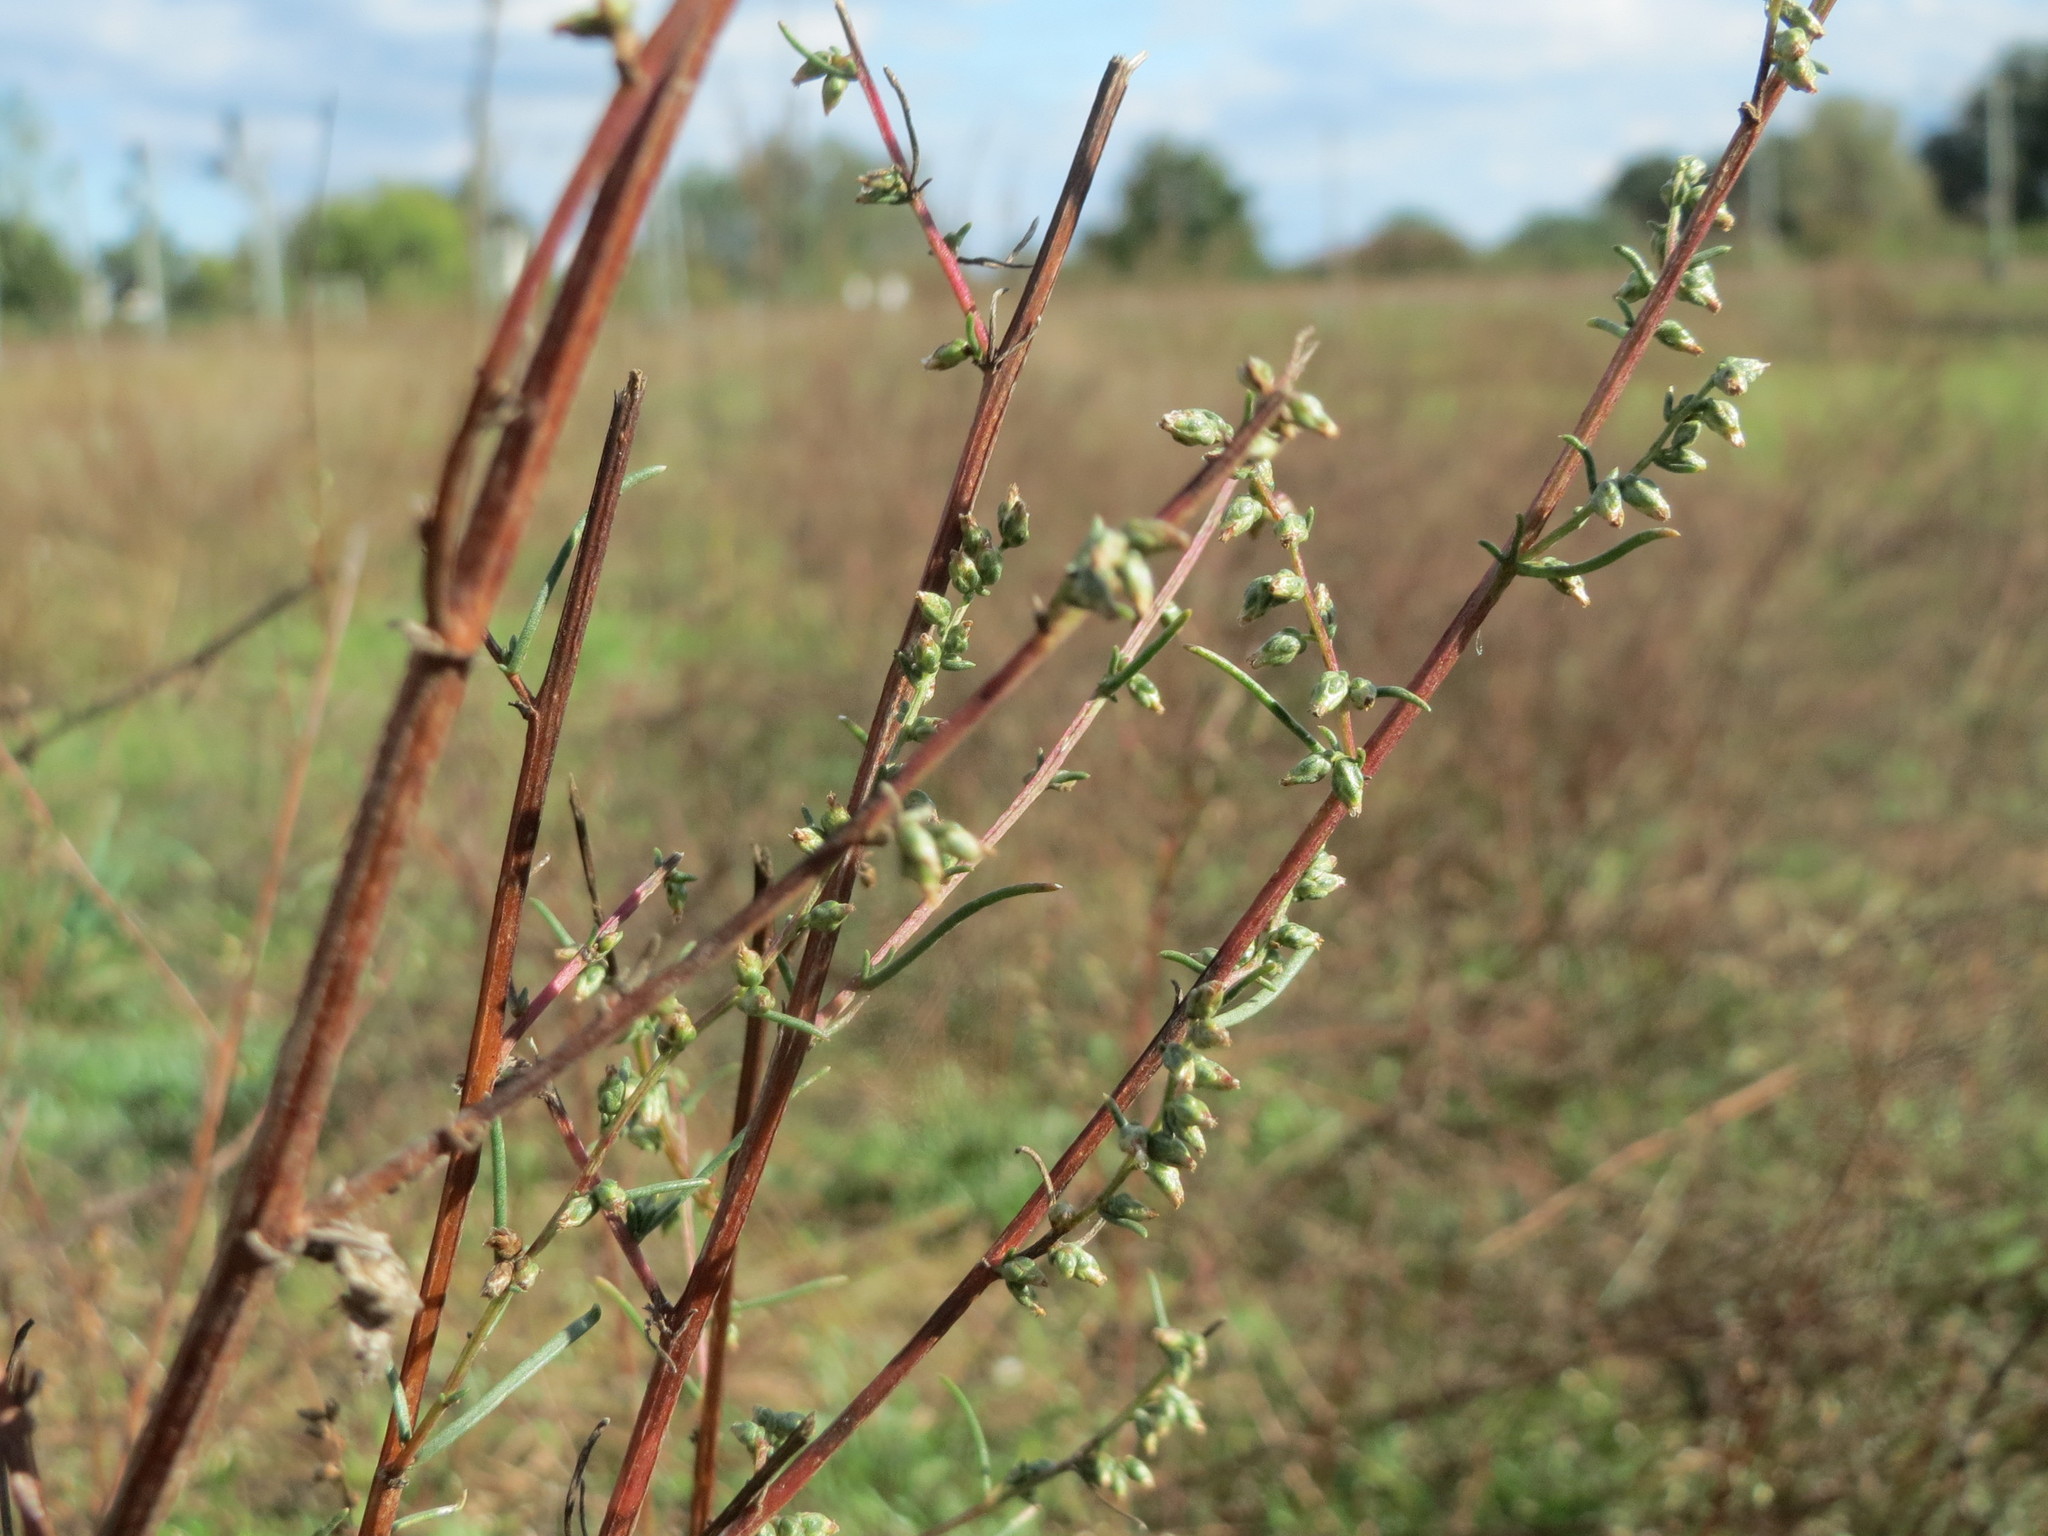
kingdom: Plantae
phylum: Tracheophyta
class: Magnoliopsida
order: Asterales
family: Asteraceae
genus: Artemisia
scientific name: Artemisia campestris
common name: Field wormwood
